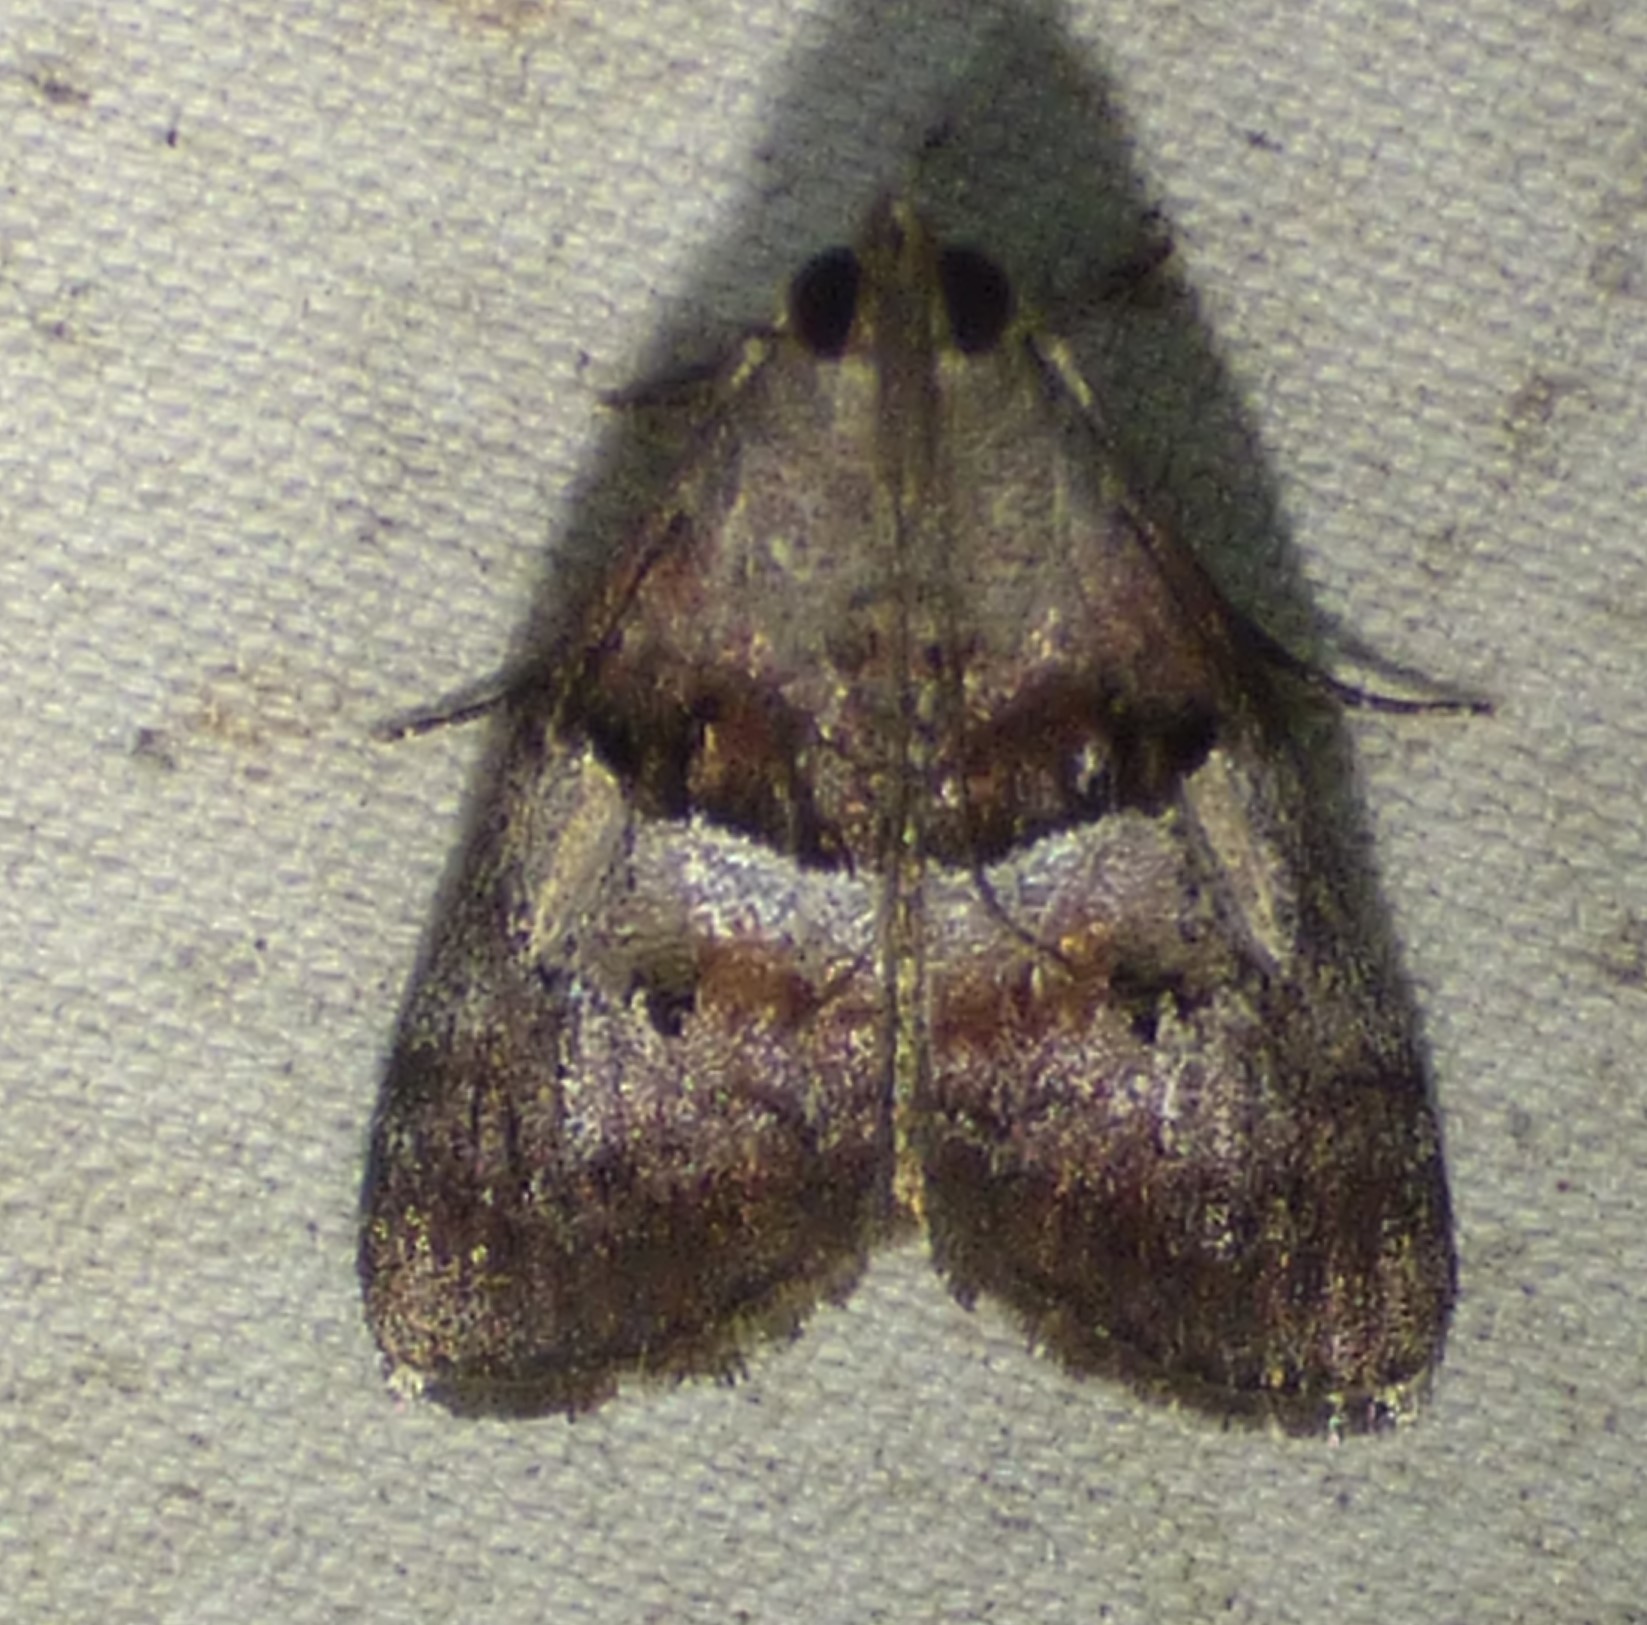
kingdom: Animalia
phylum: Arthropoda
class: Insecta
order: Lepidoptera
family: Pyralidae
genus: Pococera
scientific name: Pococera robustella
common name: Pine webworm moth
